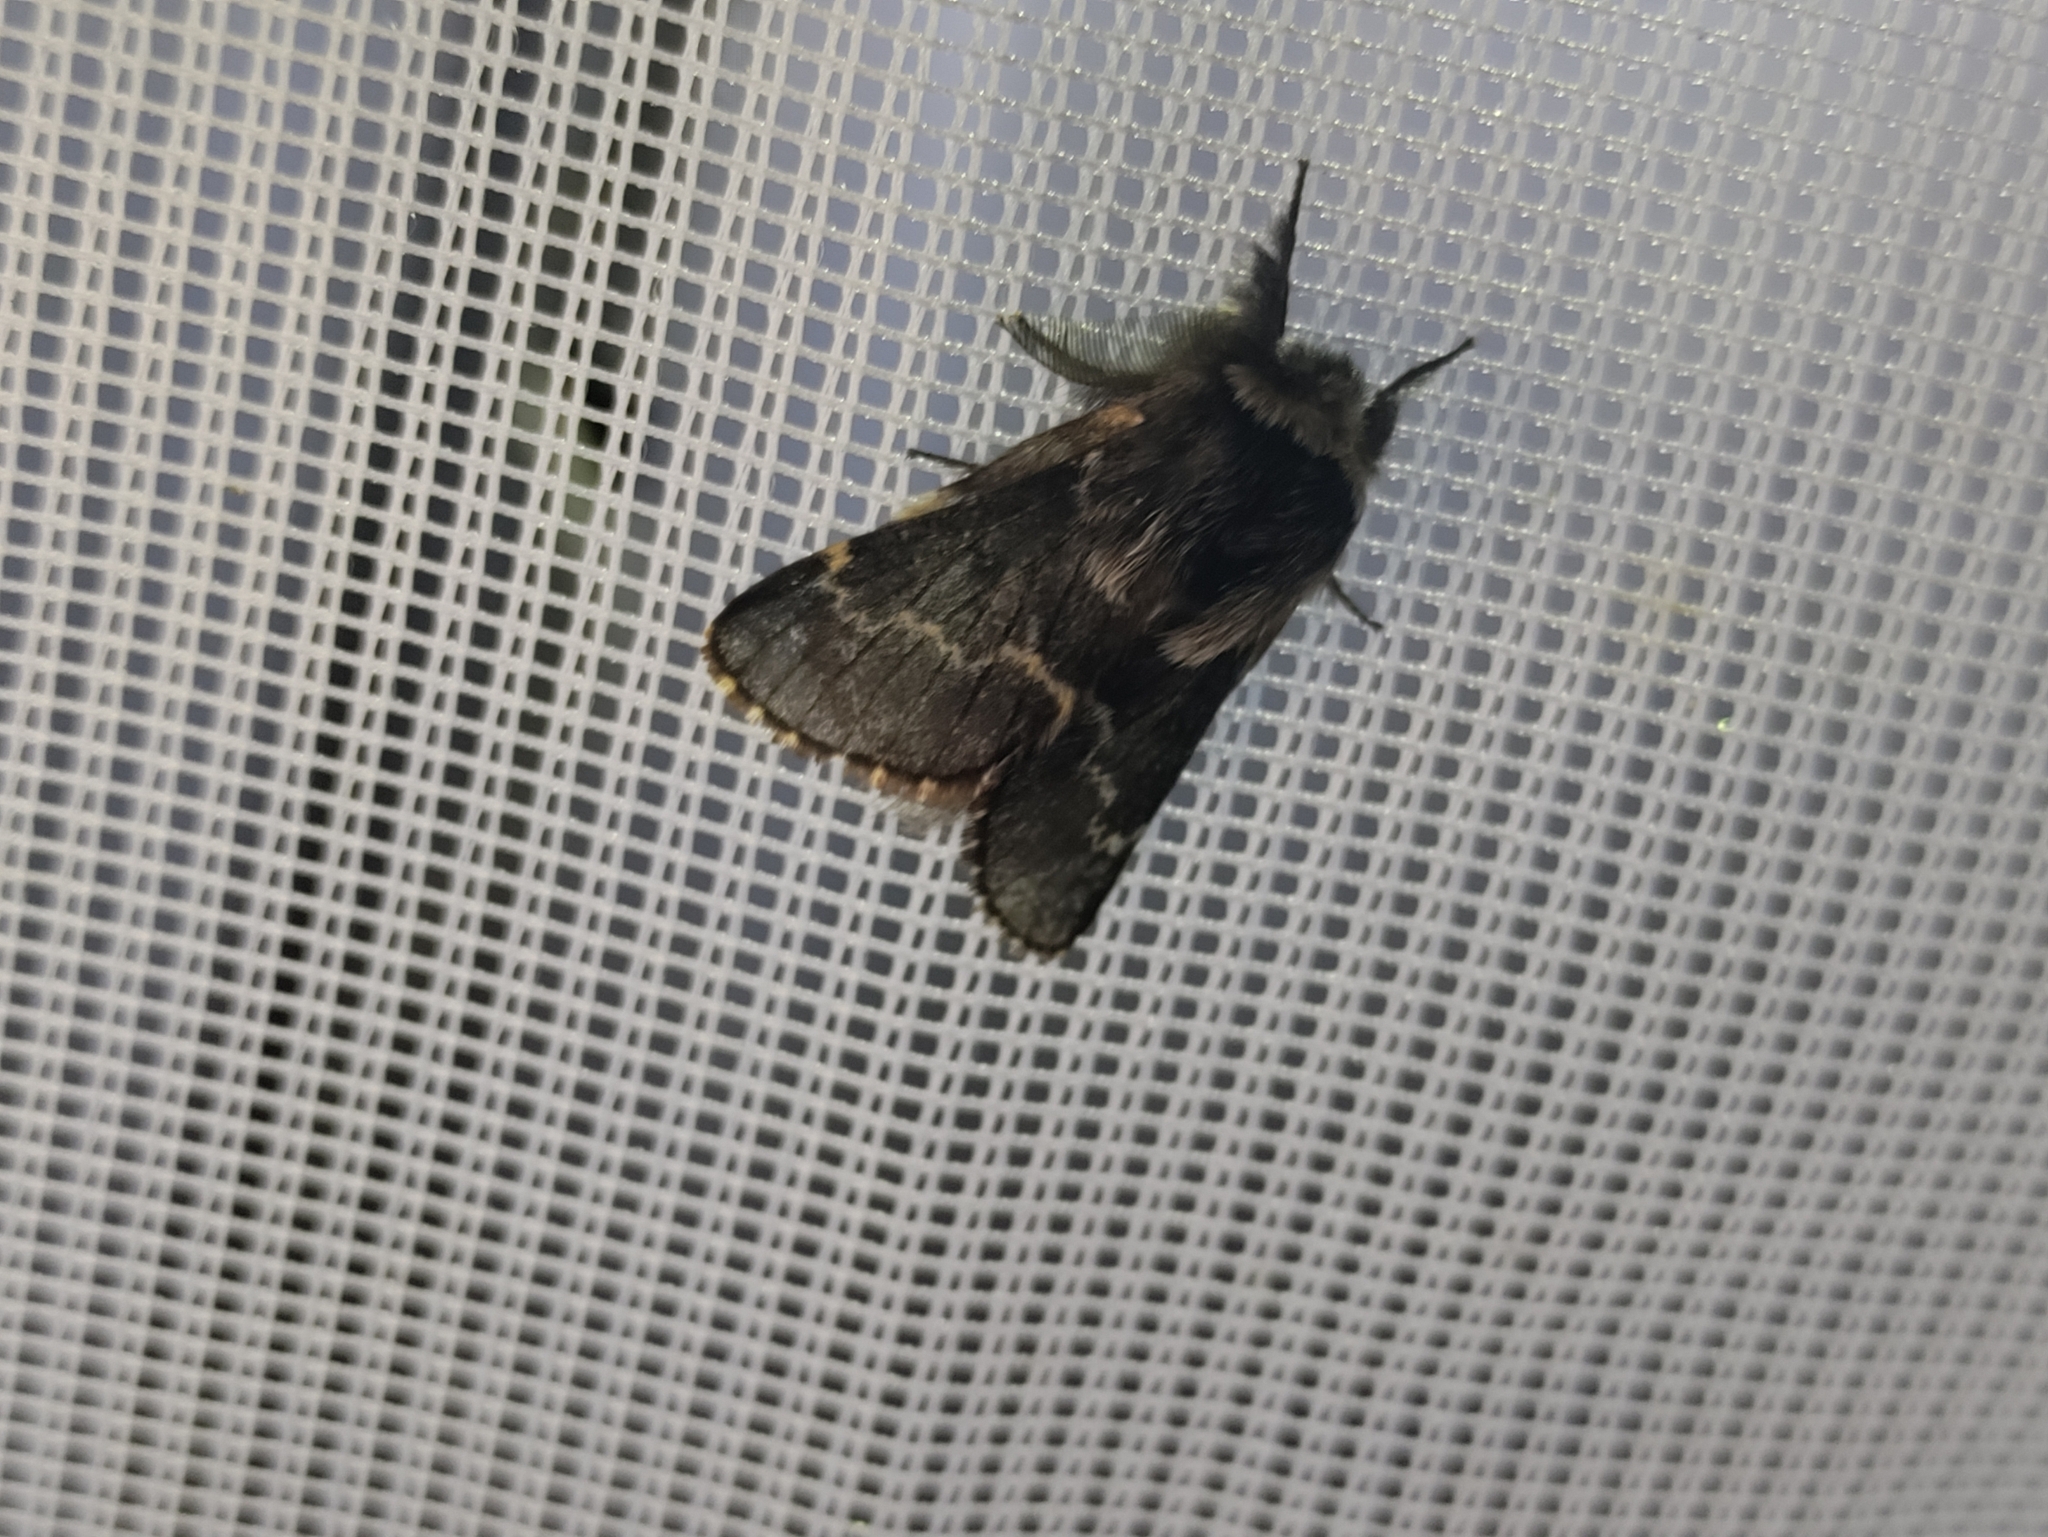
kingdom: Animalia
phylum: Arthropoda
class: Insecta
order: Lepidoptera
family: Lasiocampidae
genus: Poecilocampa
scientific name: Poecilocampa populi
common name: December moth
